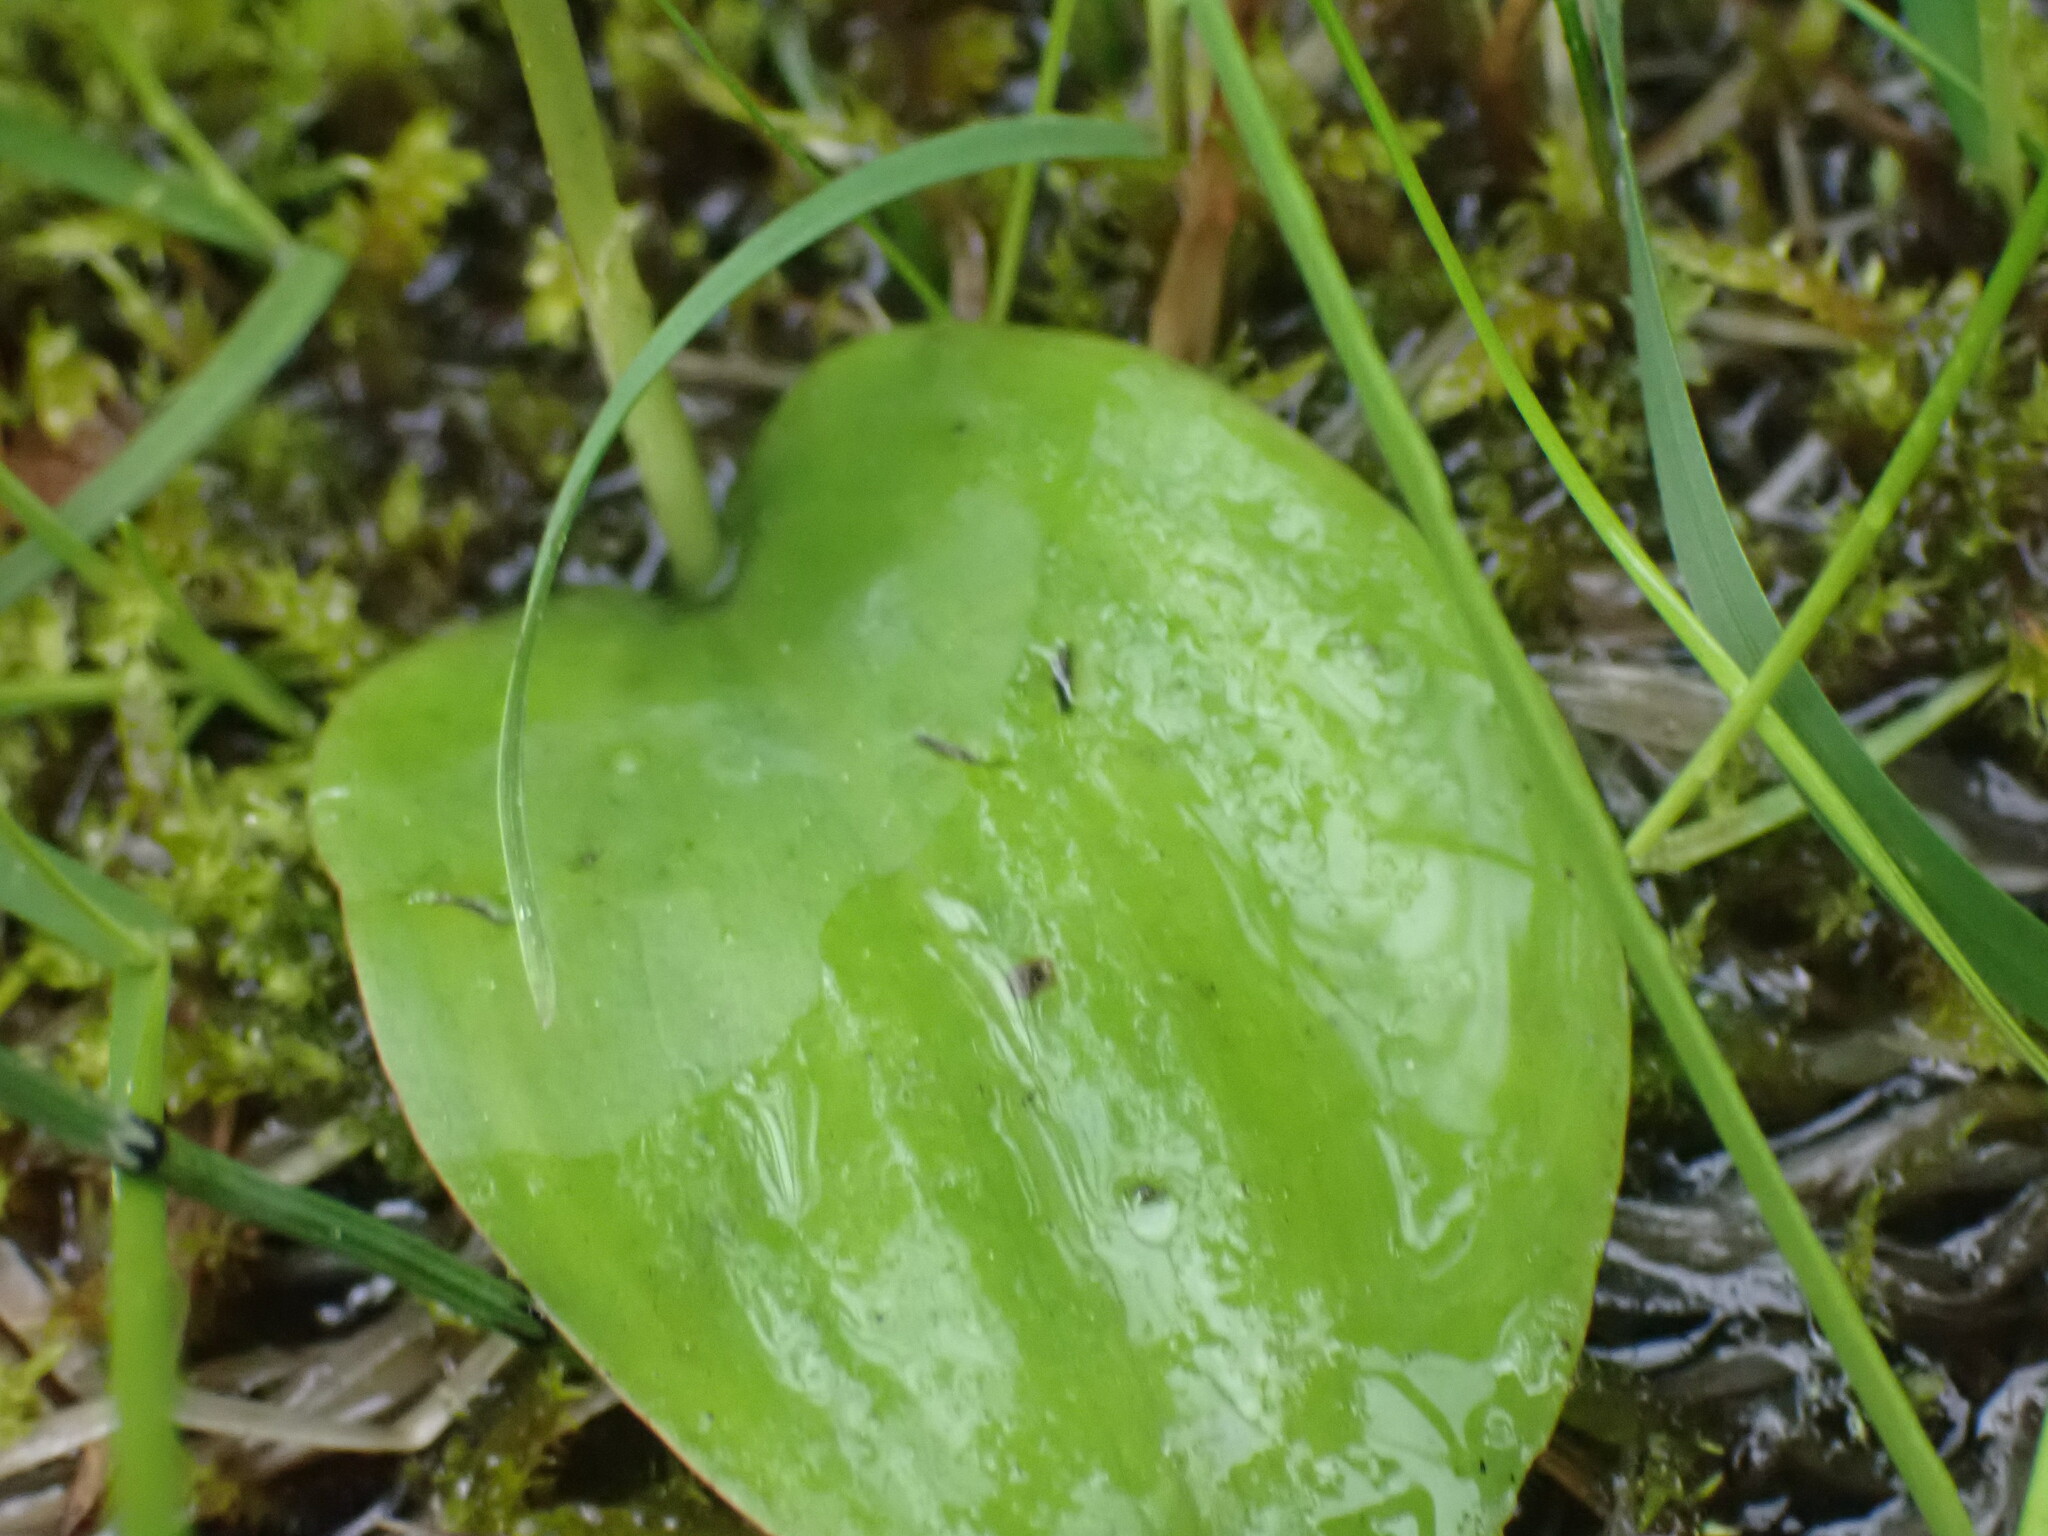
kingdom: Plantae
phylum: Tracheophyta
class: Liliopsida
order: Asparagales
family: Orchidaceae
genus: Galearis
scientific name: Galearis rotundifolia
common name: One-leaved orchis
